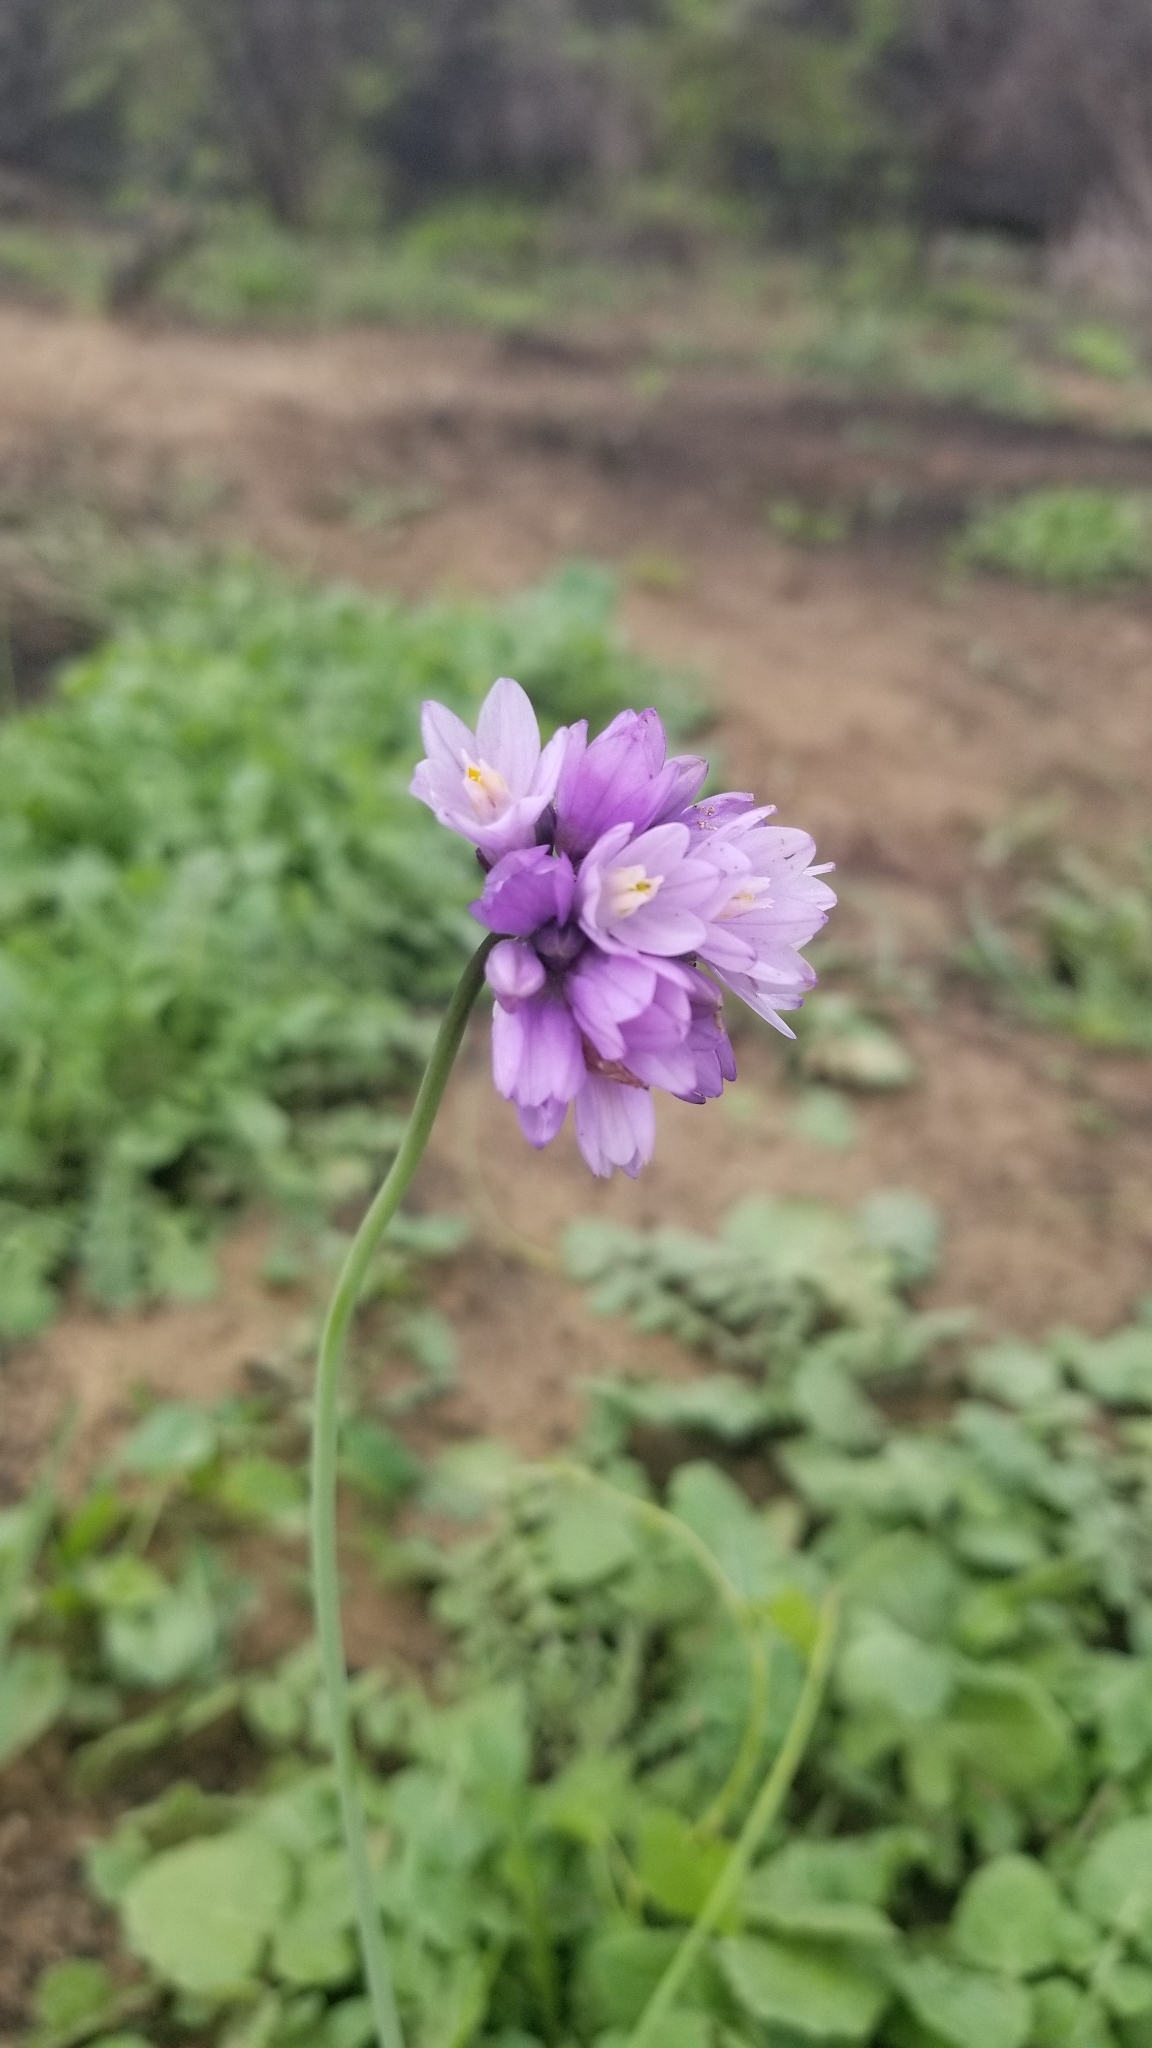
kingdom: Plantae
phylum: Tracheophyta
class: Liliopsida
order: Asparagales
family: Asparagaceae
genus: Dipterostemon
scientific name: Dipterostemon capitatus
